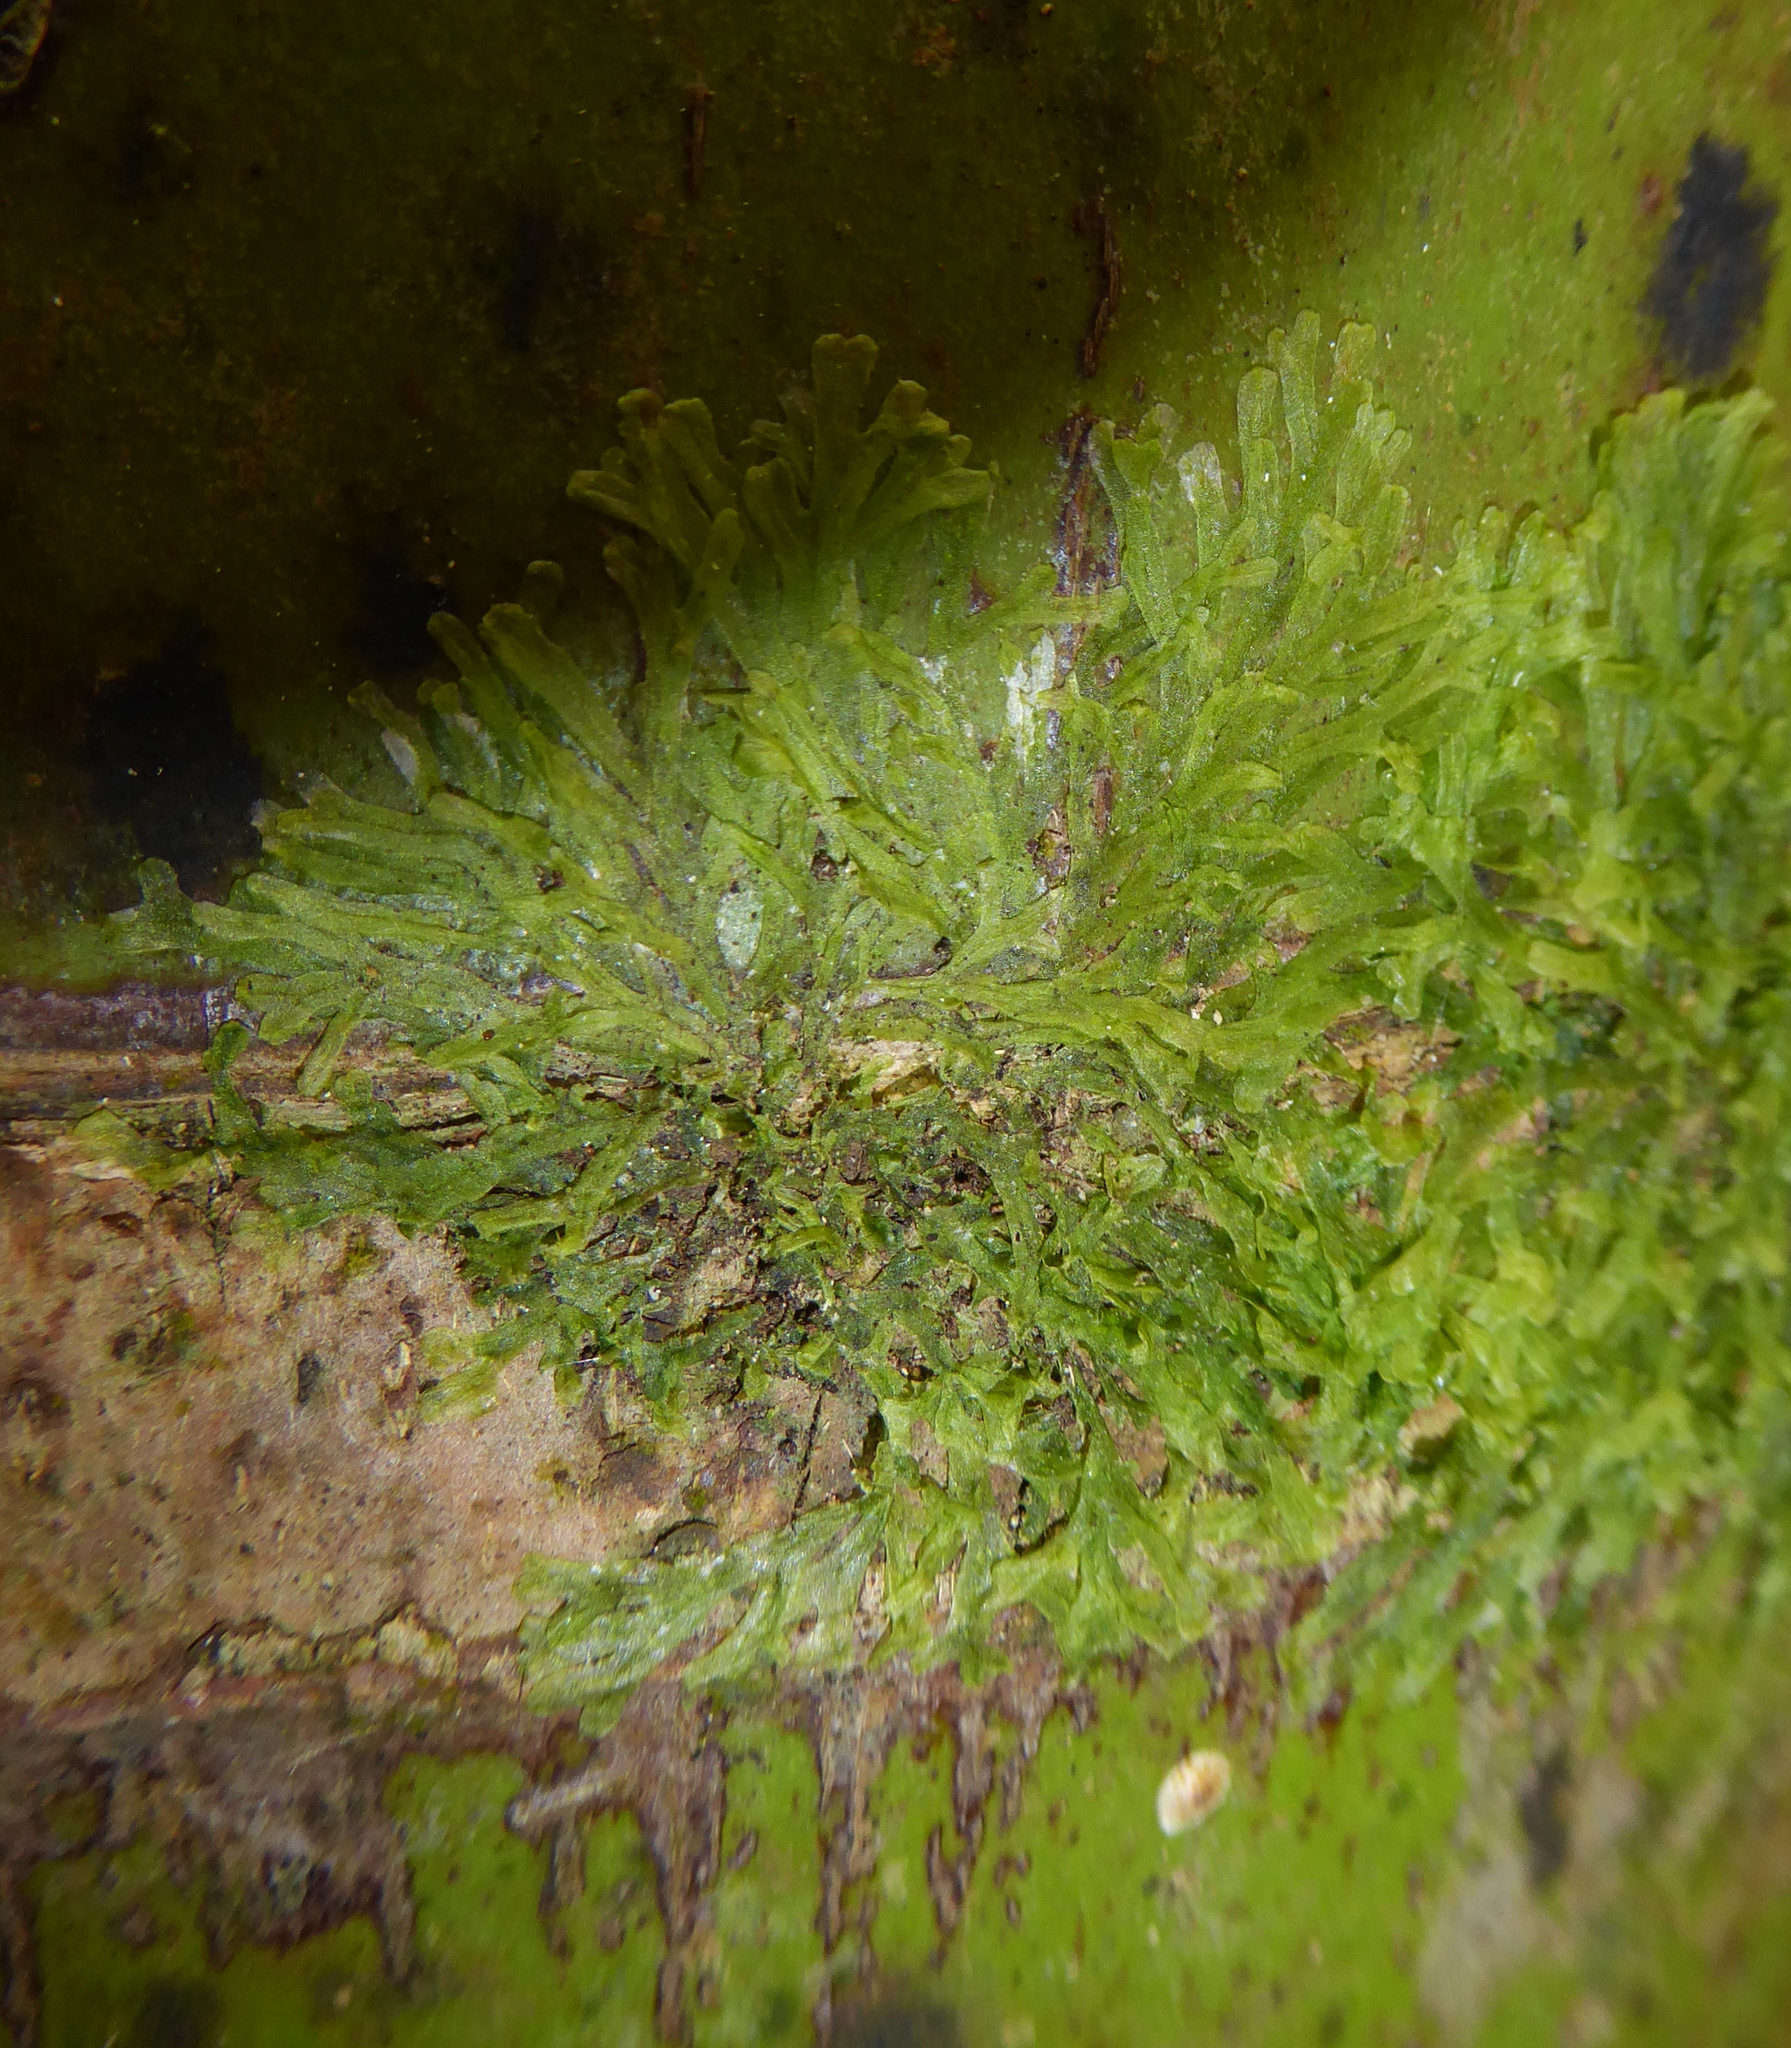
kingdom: Plantae
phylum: Marchantiophyta
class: Jungermanniopsida
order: Metzgeriales
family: Metzgeriaceae
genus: Metzgeria
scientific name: Metzgeria furcata
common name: Forked veilwort
